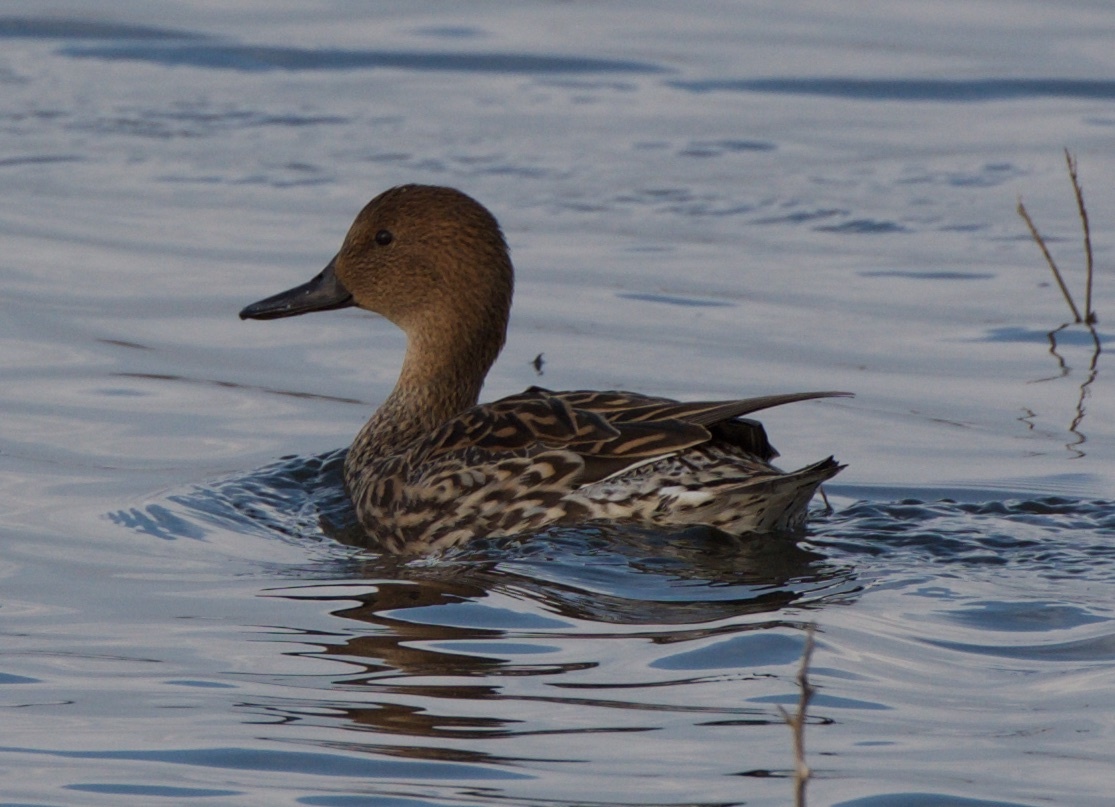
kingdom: Animalia
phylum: Chordata
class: Aves
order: Anseriformes
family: Anatidae
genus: Anas
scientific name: Anas acuta
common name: Northern pintail
